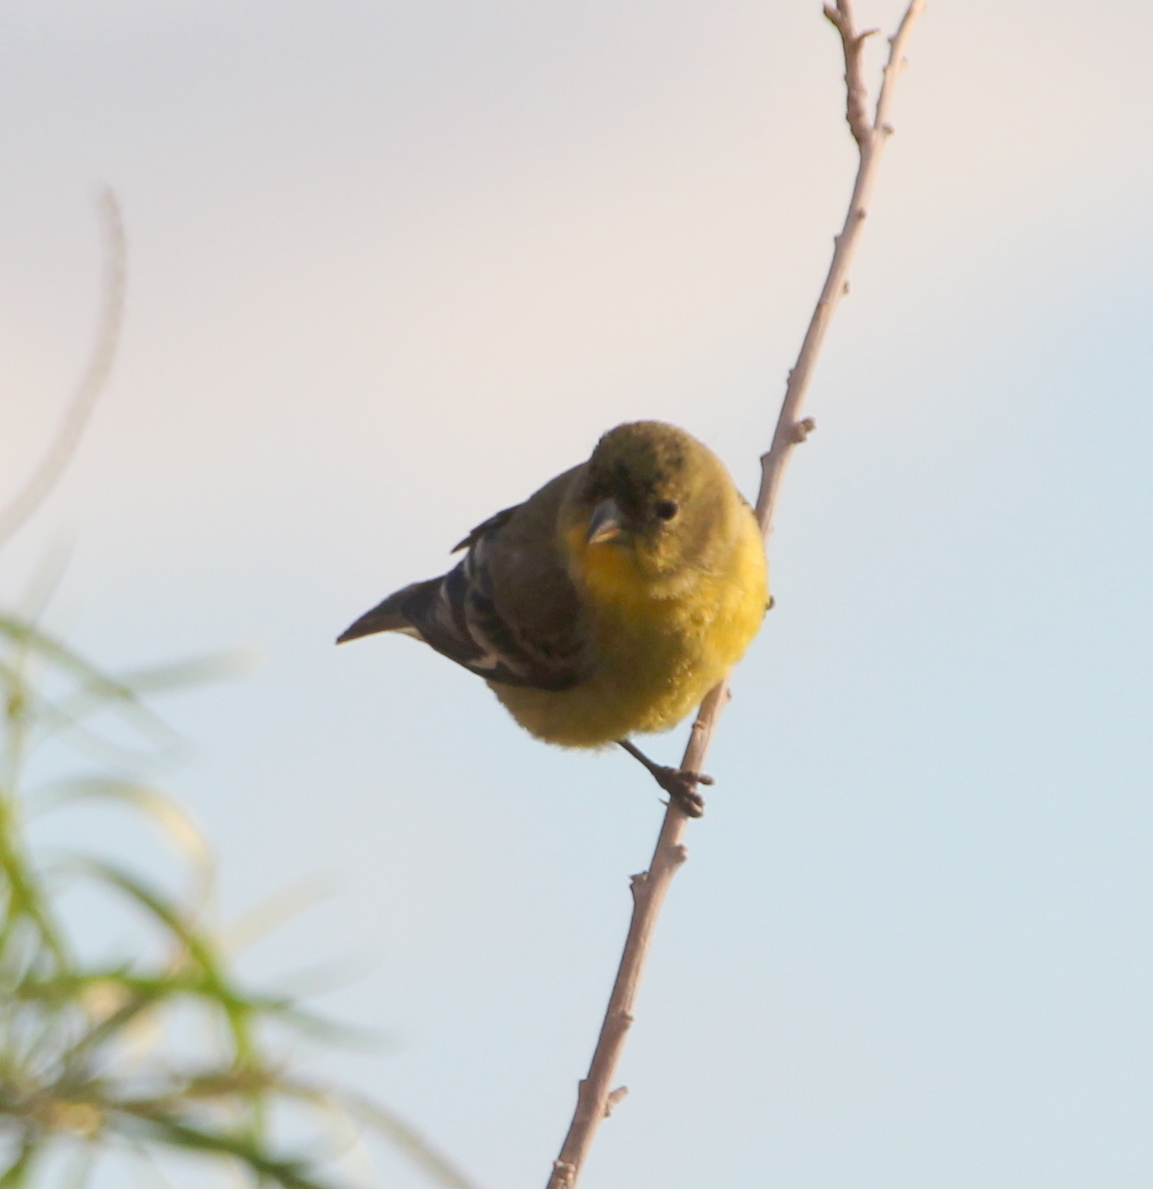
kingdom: Animalia
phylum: Chordata
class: Aves
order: Passeriformes
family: Fringillidae
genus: Spinus
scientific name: Spinus psaltria
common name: Lesser goldfinch
